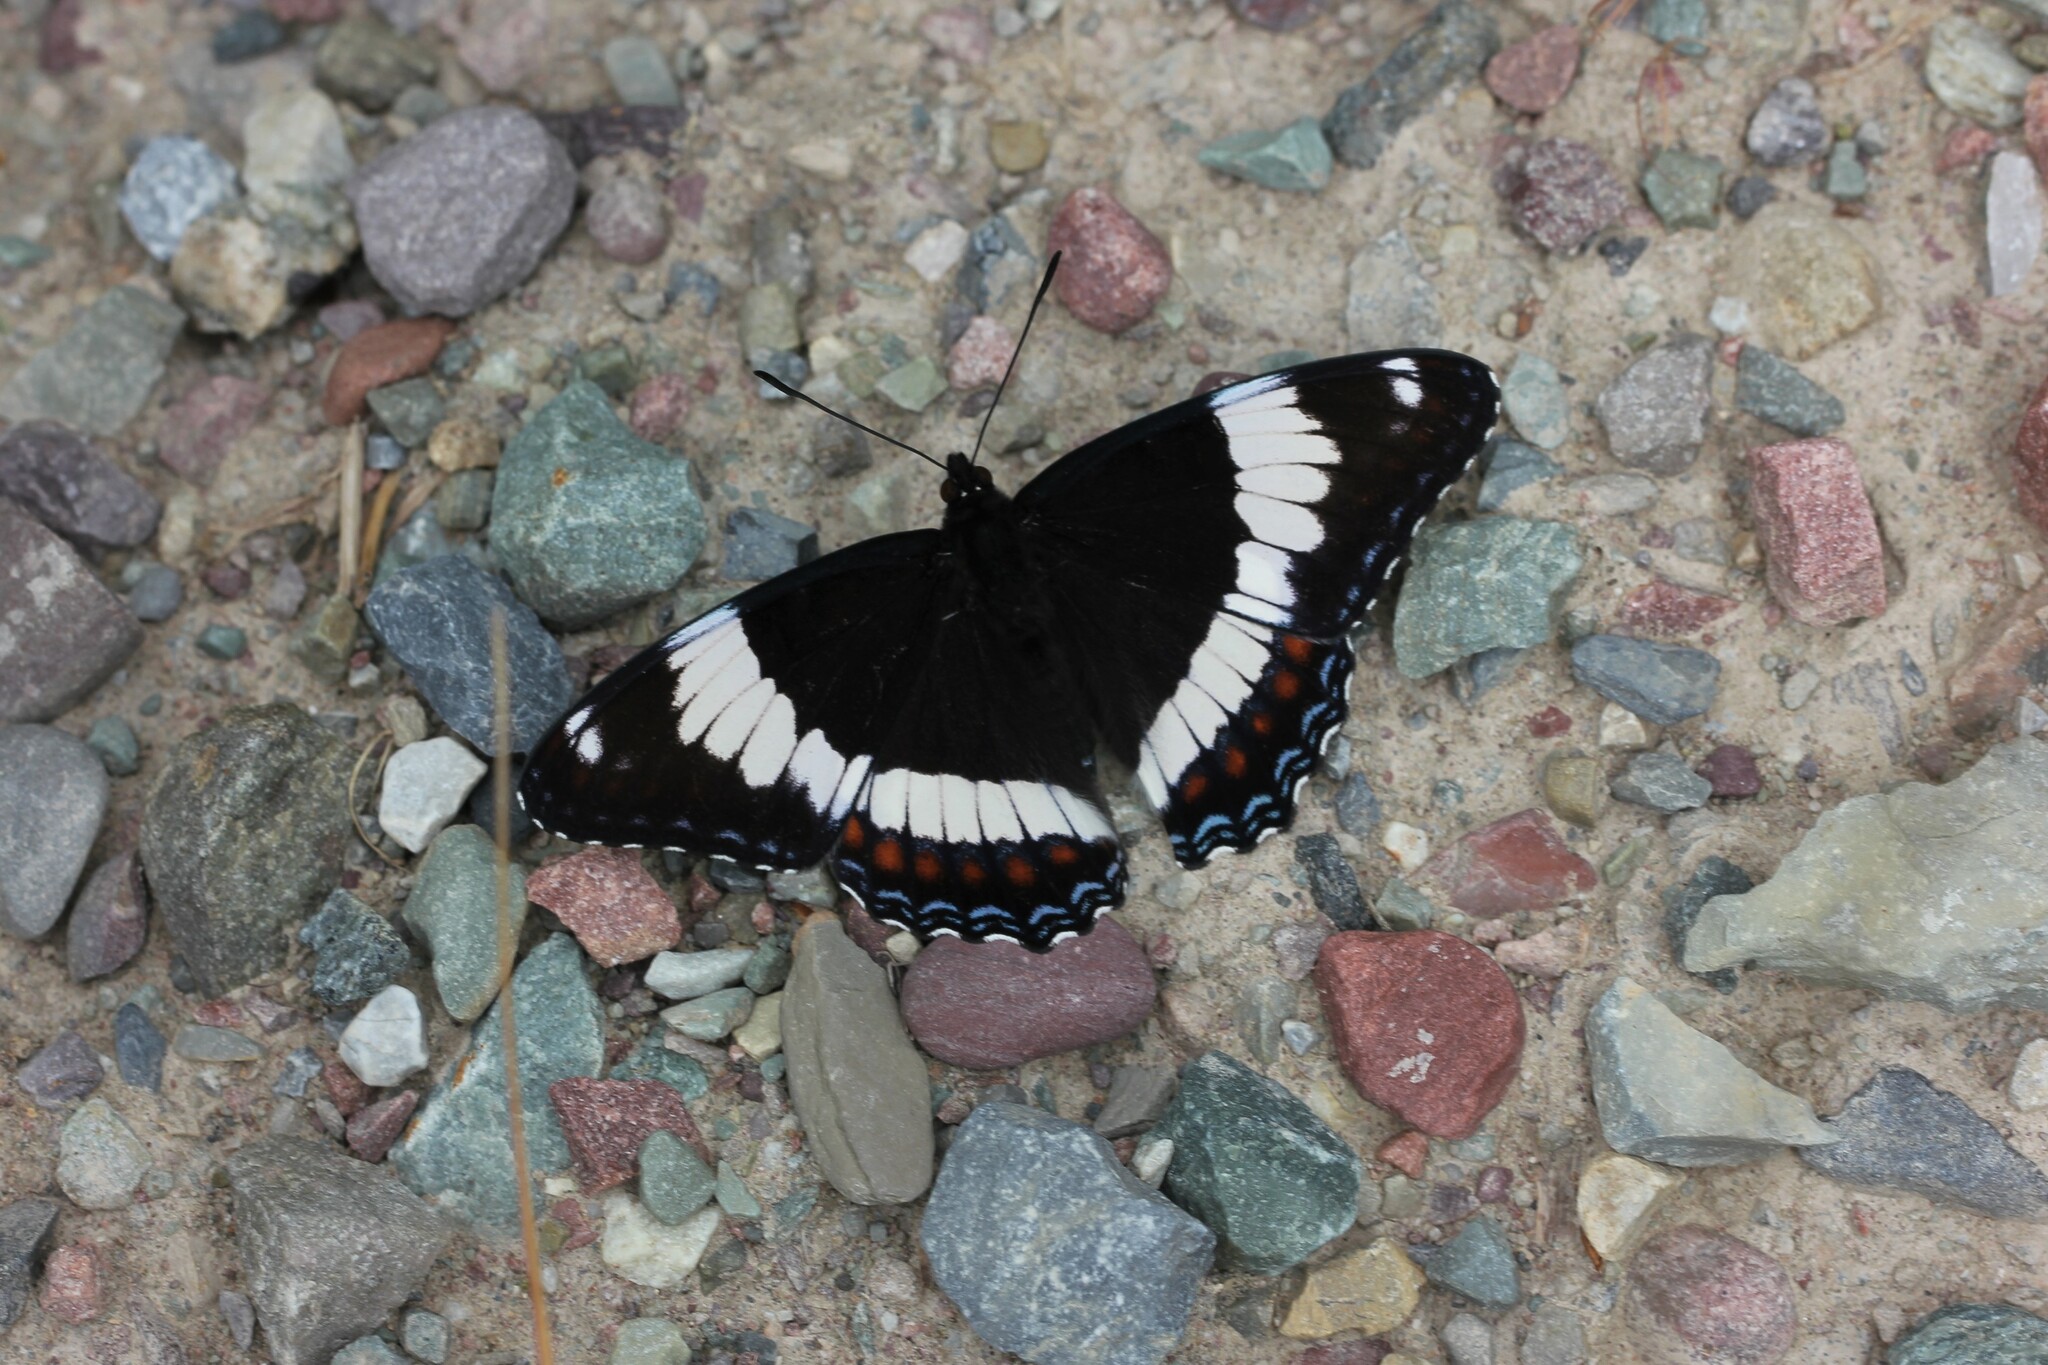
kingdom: Animalia
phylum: Arthropoda
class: Insecta
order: Lepidoptera
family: Nymphalidae
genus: Limenitis
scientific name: Limenitis arthemis
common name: Red-spotted admiral
